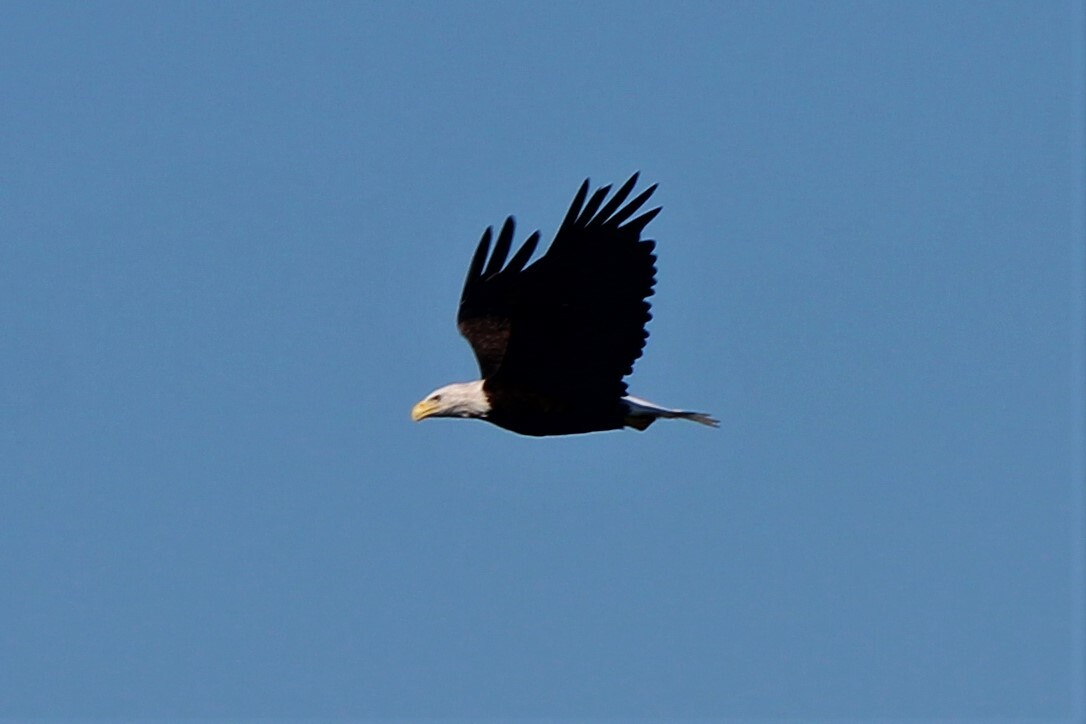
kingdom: Animalia
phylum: Chordata
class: Aves
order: Accipitriformes
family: Accipitridae
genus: Haliaeetus
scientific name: Haliaeetus leucocephalus
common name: Bald eagle
